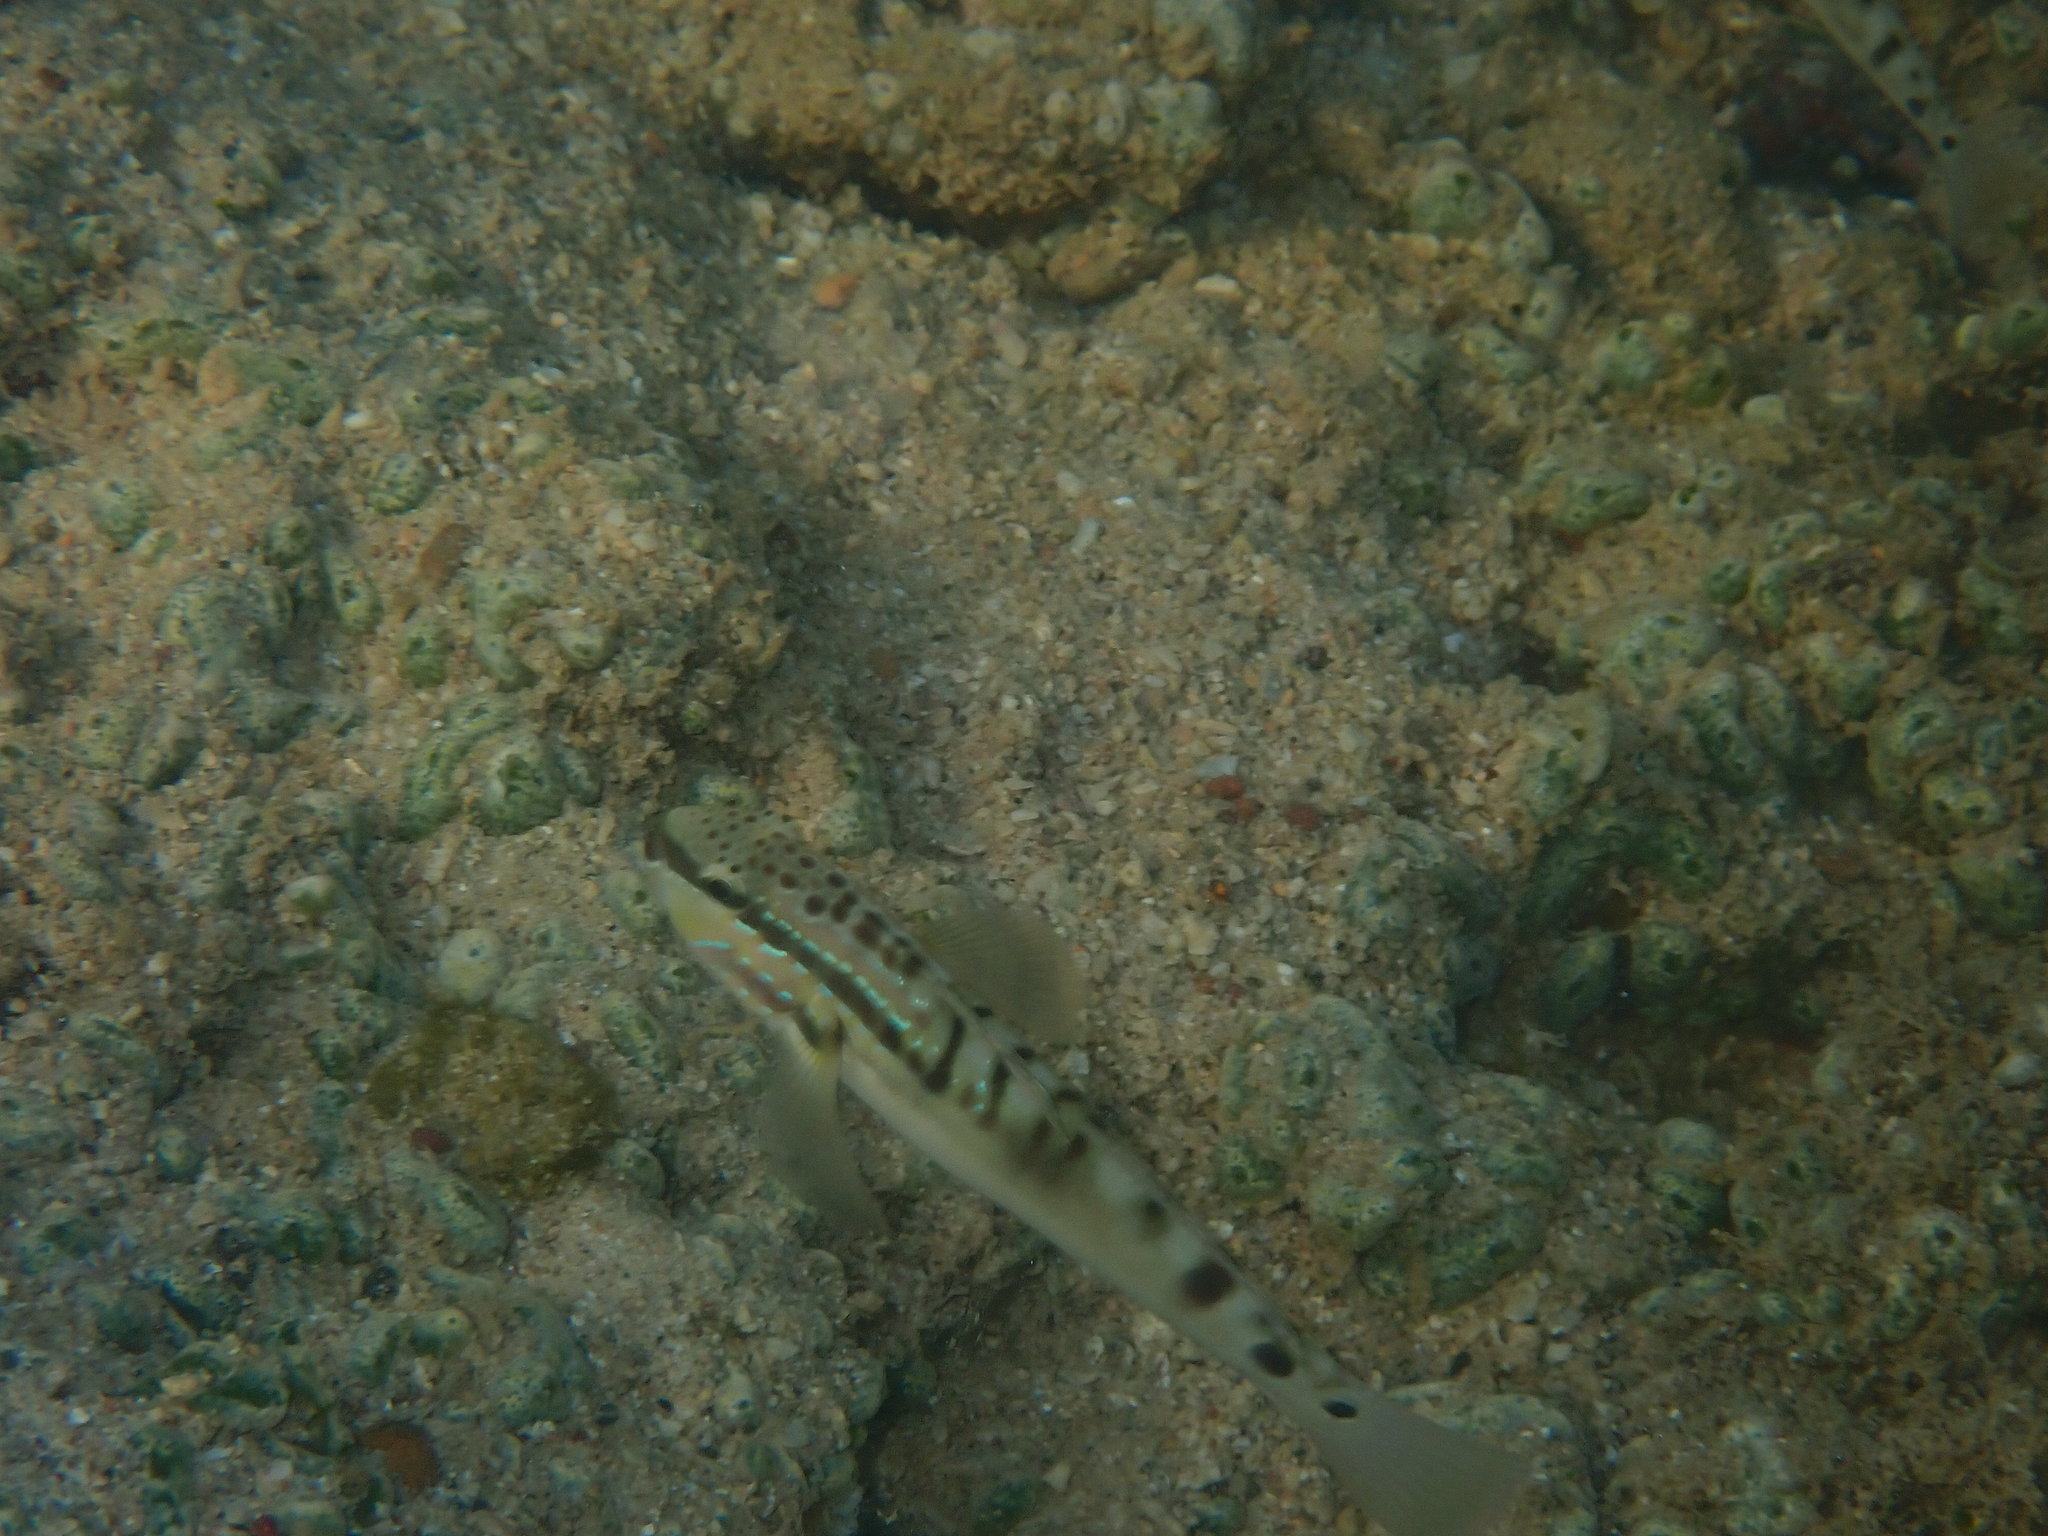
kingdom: Animalia
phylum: Chordata
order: Perciformes
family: Gobiidae
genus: Amblygobius
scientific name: Amblygobius stethophthalmus
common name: Freckled goby
